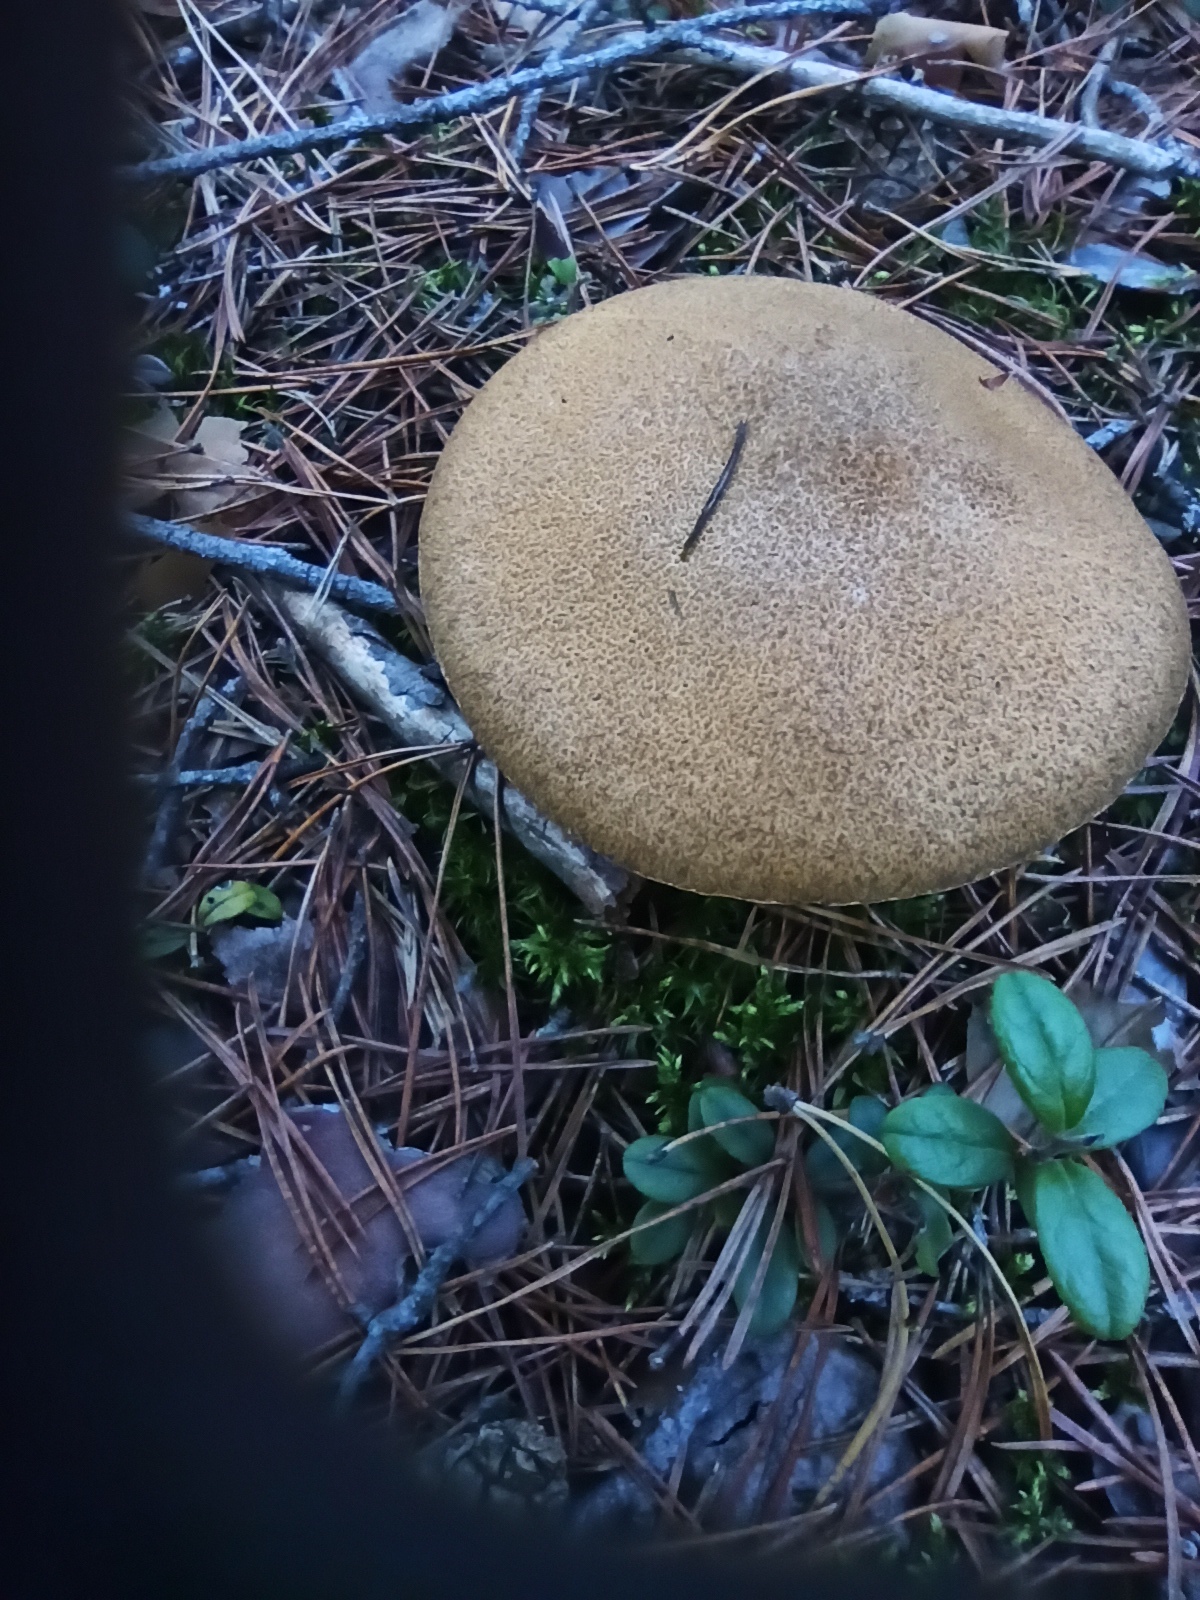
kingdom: Fungi
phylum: Basidiomycota
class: Agaricomycetes
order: Boletales
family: Suillaceae
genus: Suillus
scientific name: Suillus variegatus
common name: Velvet bolete
